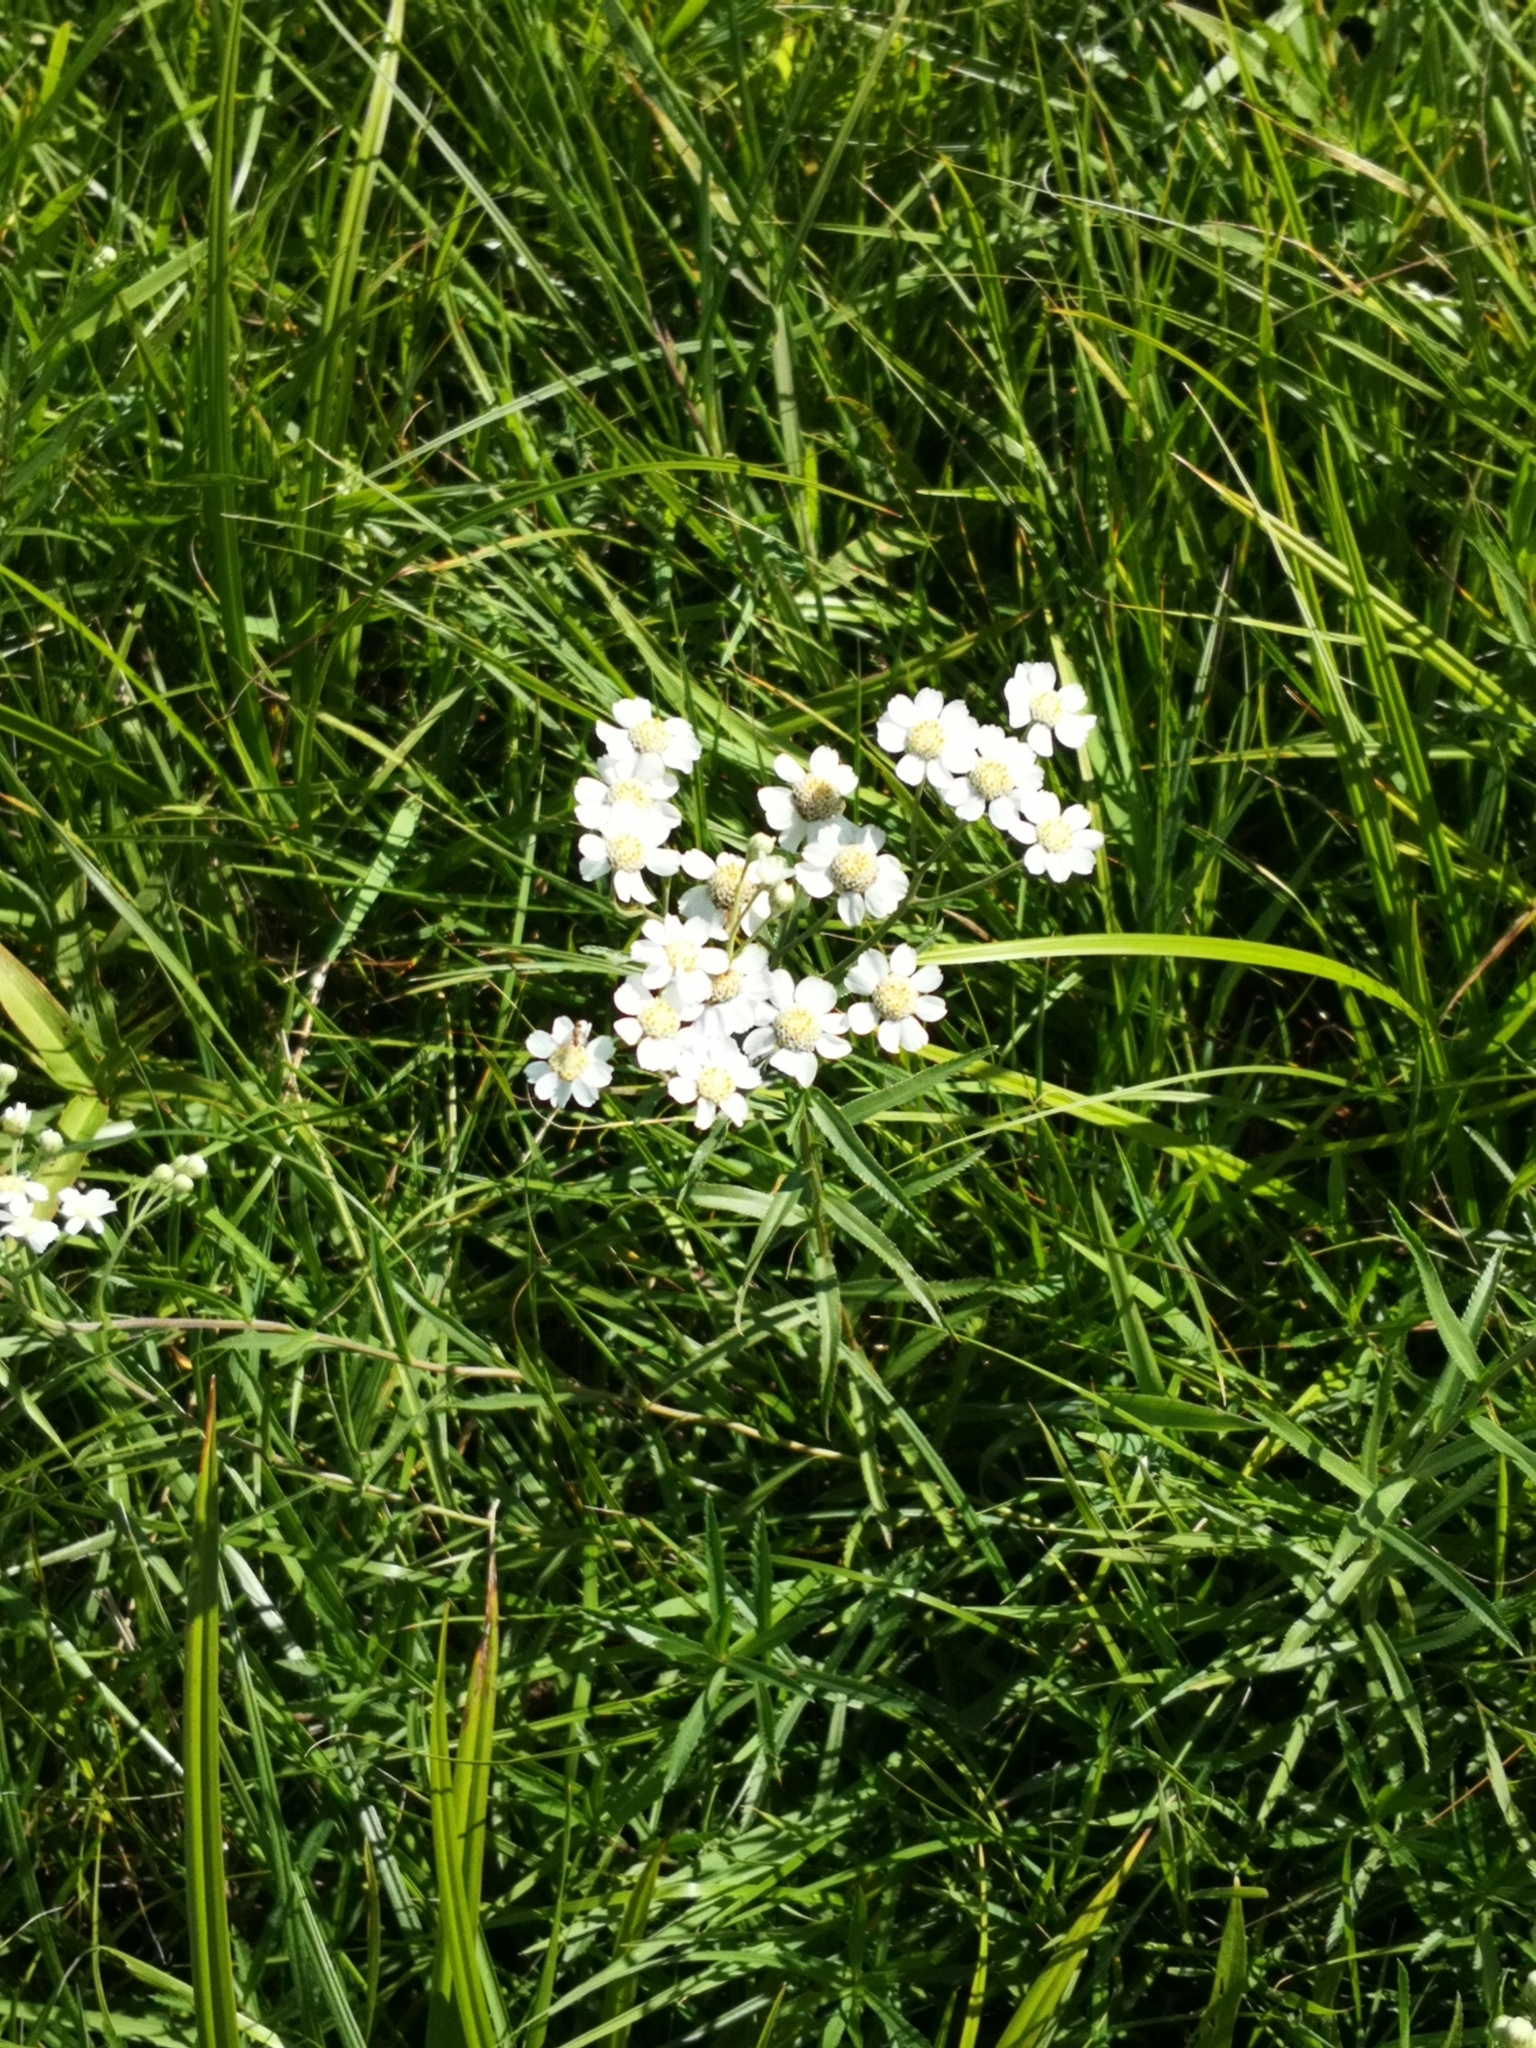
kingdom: Plantae
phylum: Tracheophyta
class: Magnoliopsida
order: Asterales
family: Asteraceae
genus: Achillea
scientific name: Achillea ptarmica
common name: Sneezeweed
